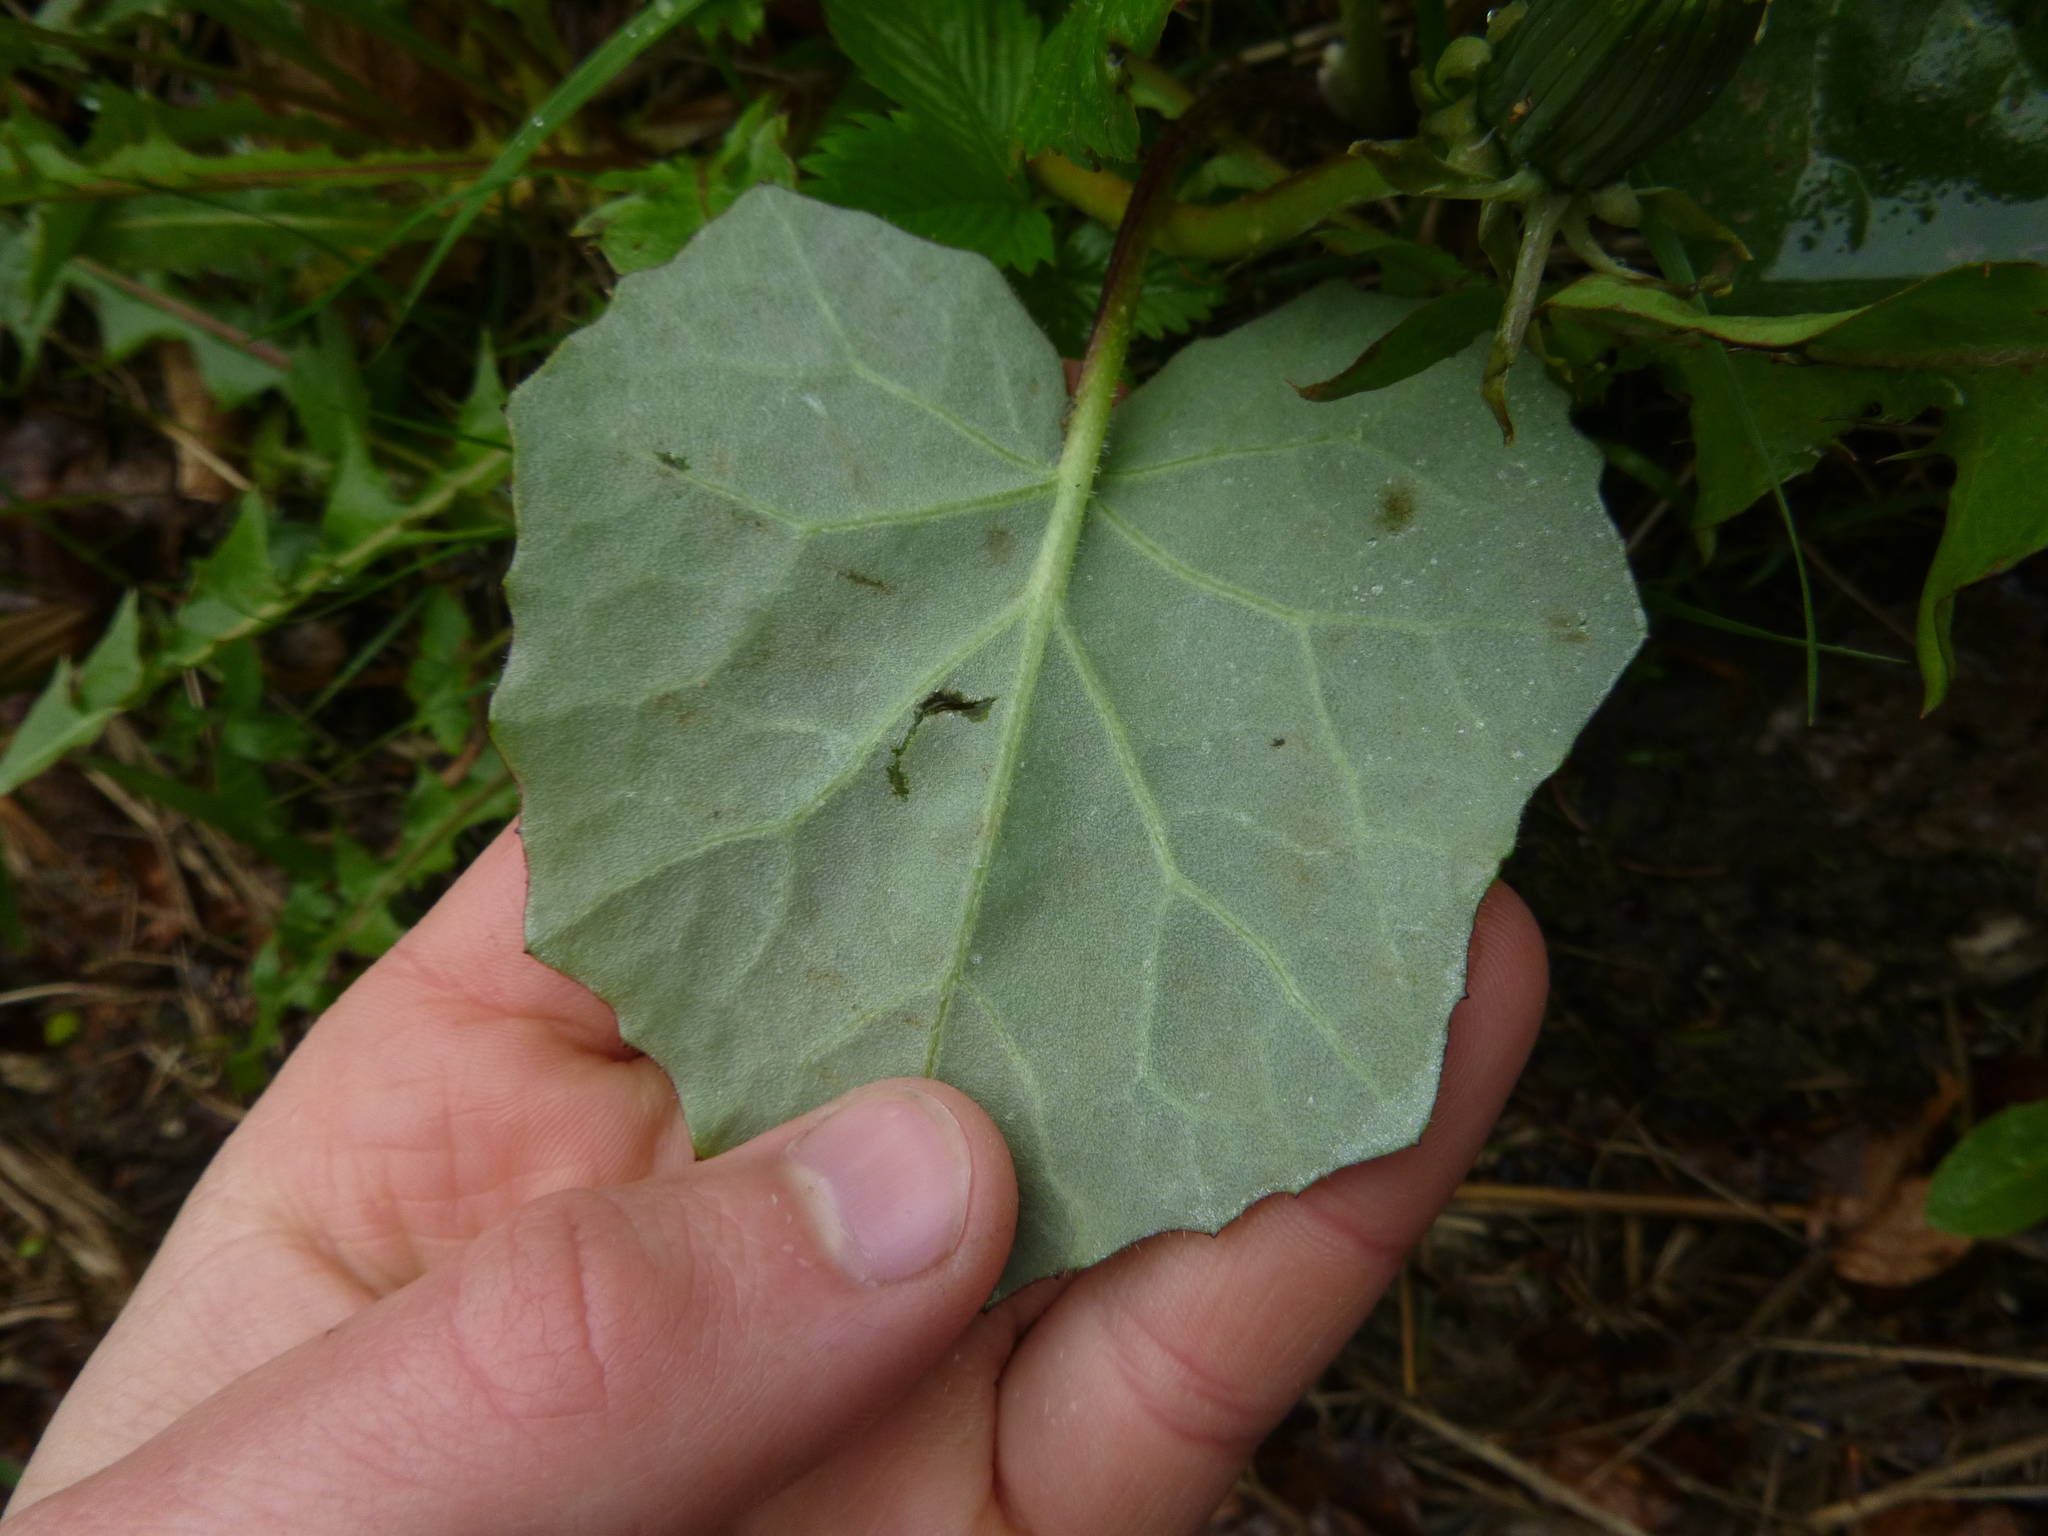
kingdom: Plantae
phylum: Tracheophyta
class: Magnoliopsida
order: Asterales
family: Asteraceae
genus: Tussilago
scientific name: Tussilago farfara
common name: Coltsfoot
